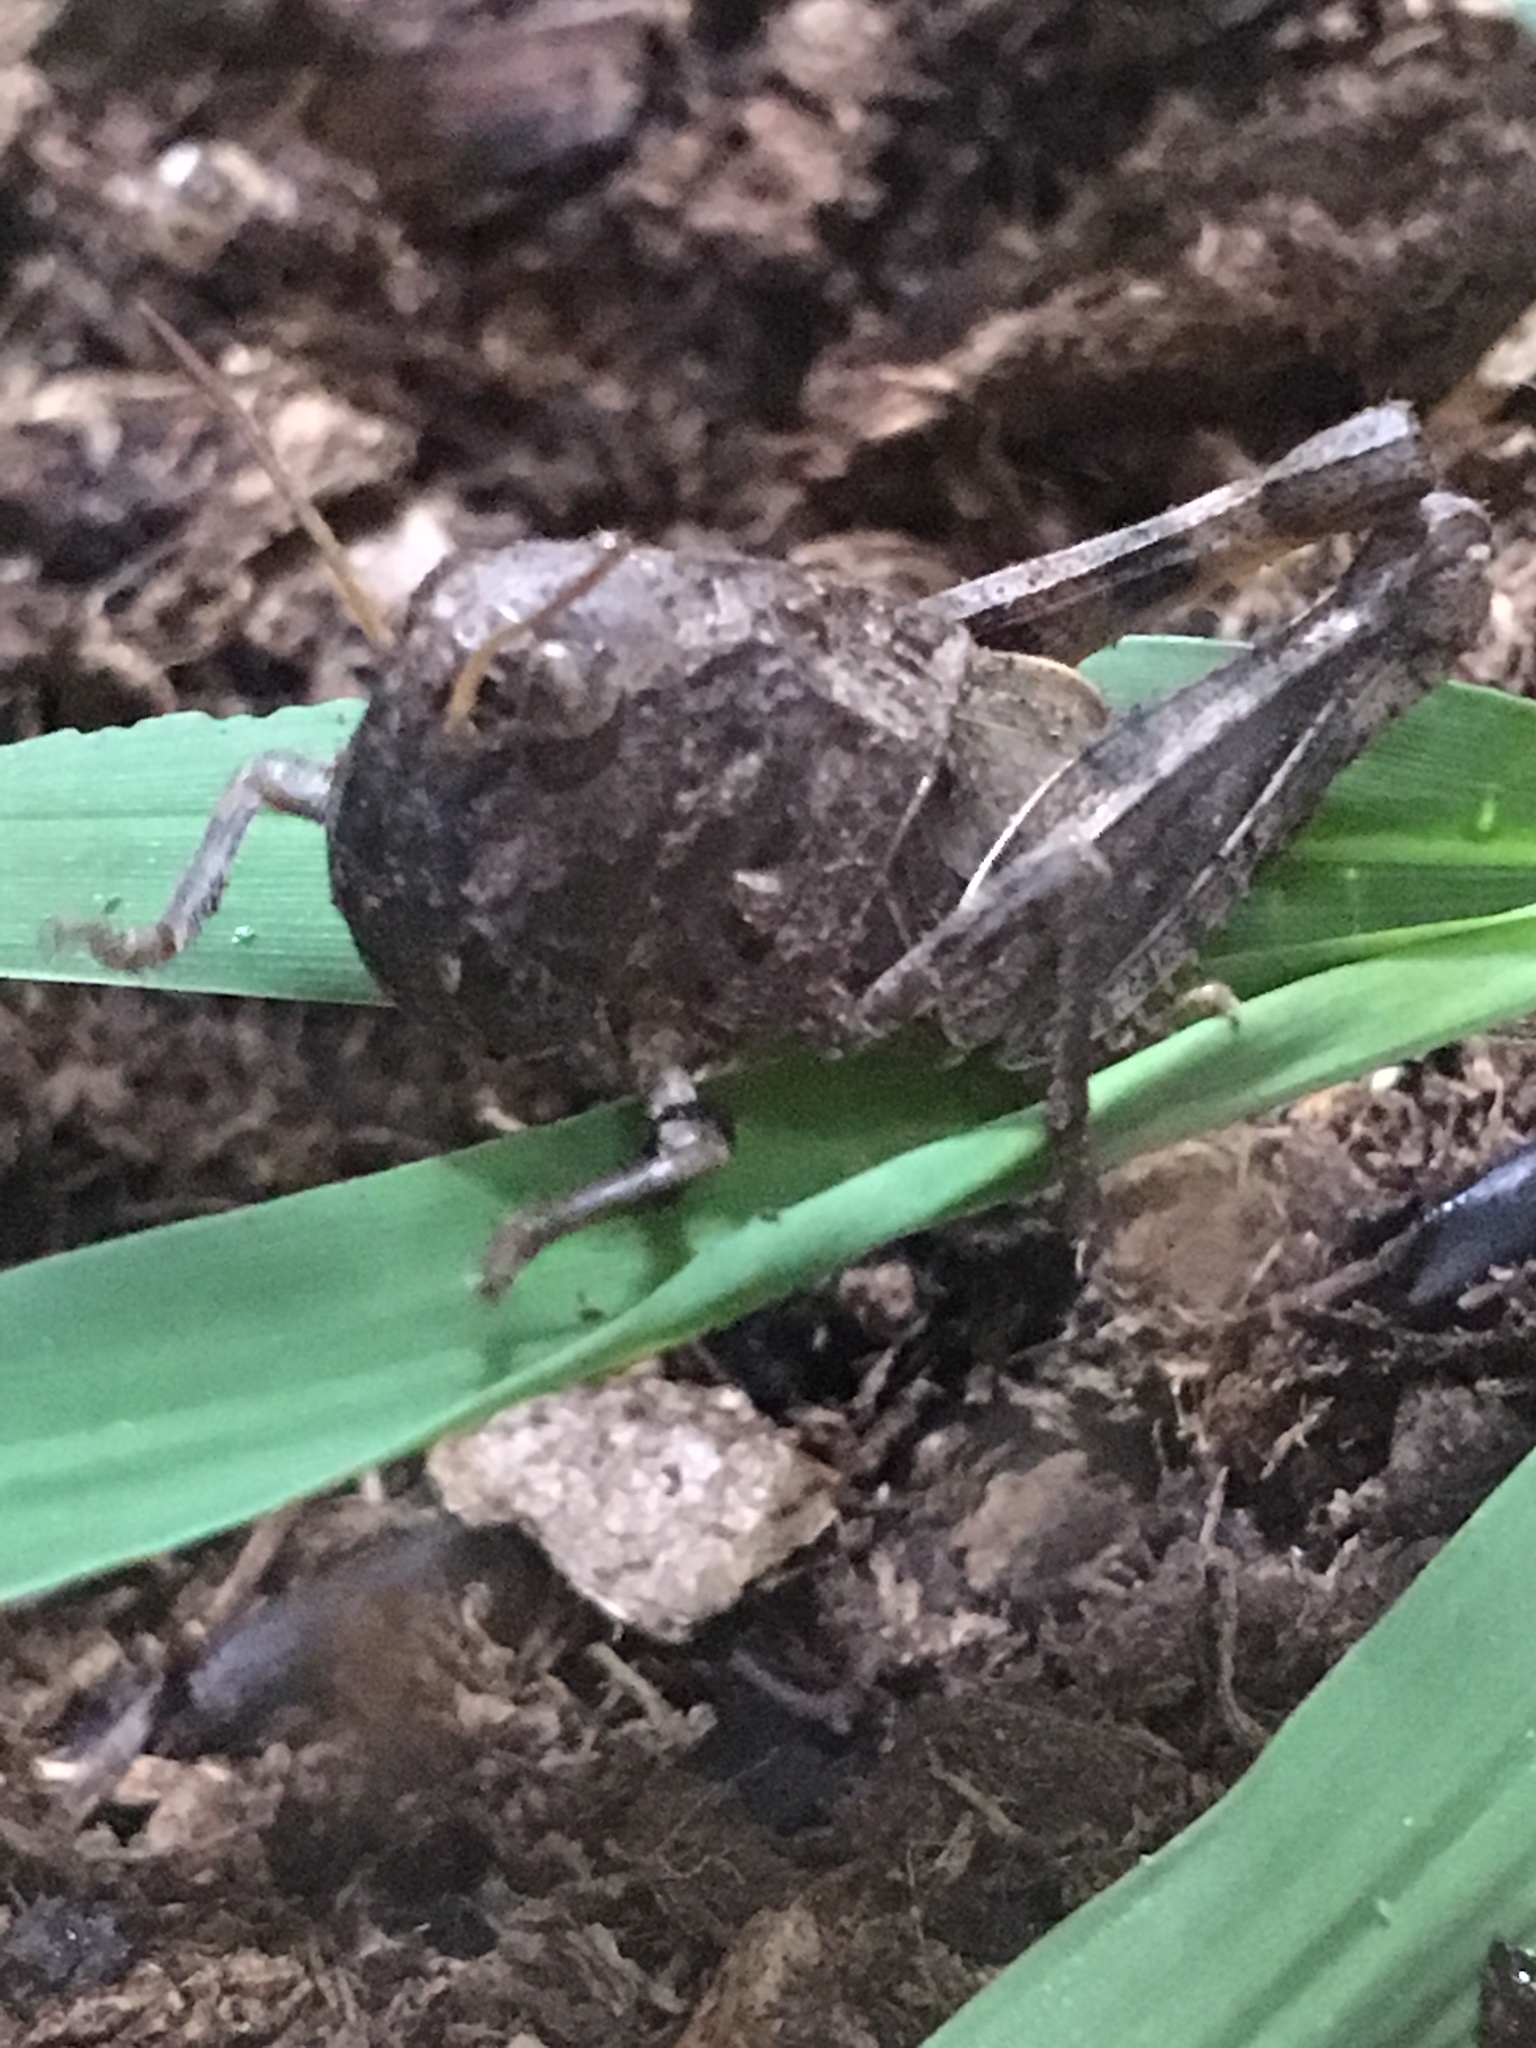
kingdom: Animalia
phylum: Arthropoda
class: Insecta
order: Orthoptera
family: Acrididae
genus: Hippiscus
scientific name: Hippiscus ocelote
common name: Wrinkled grasshopper
